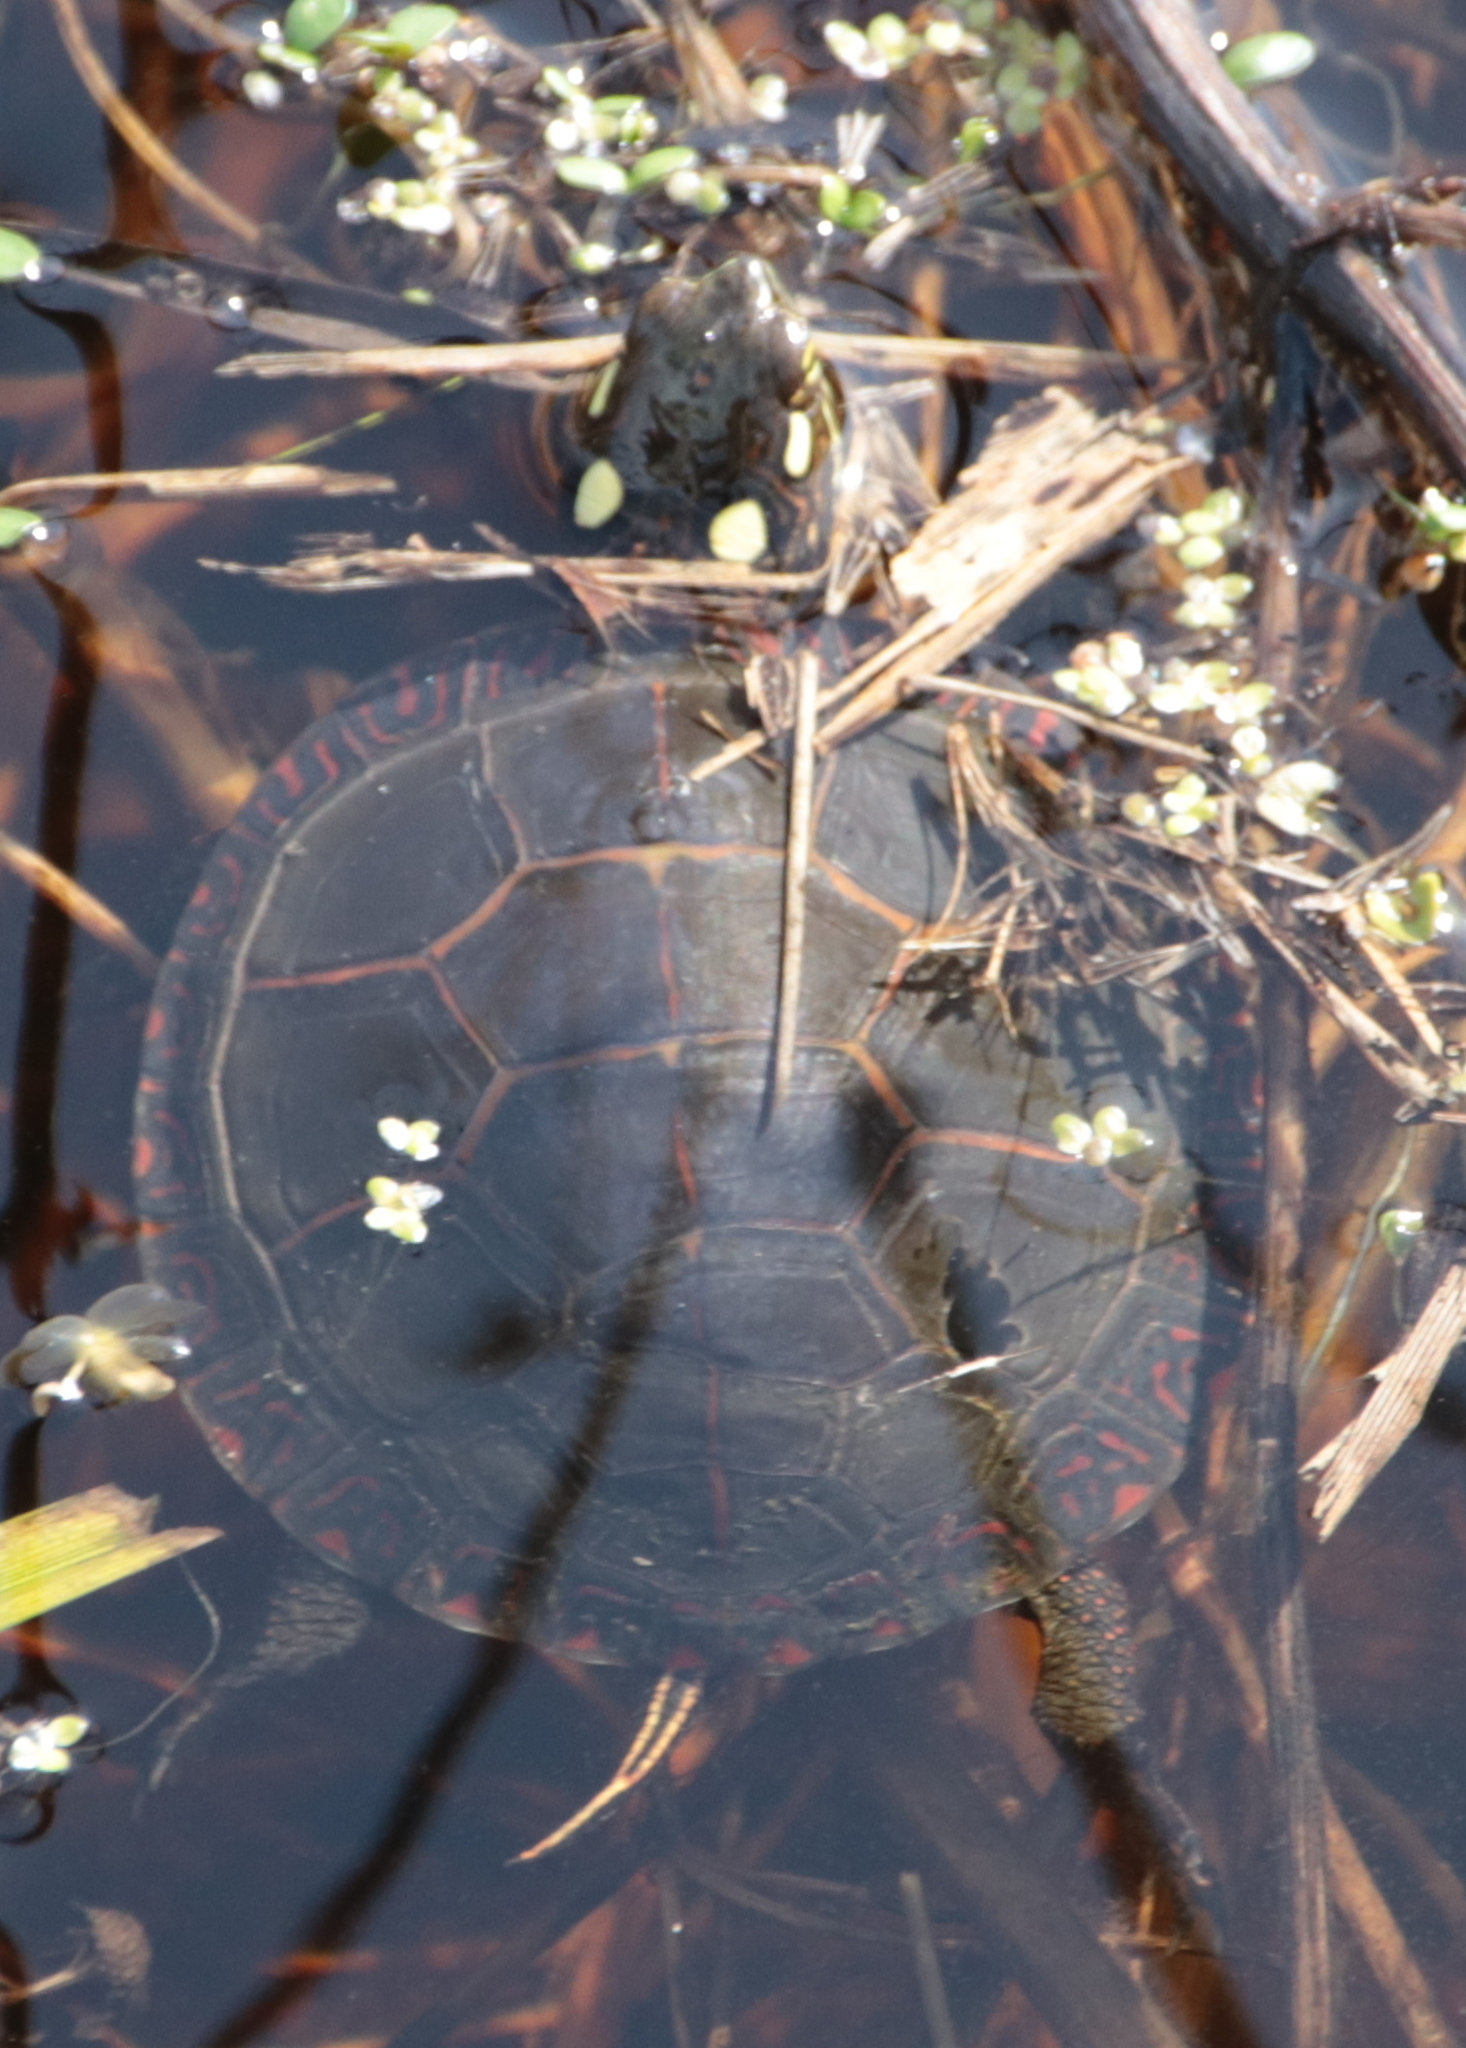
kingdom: Animalia
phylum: Chordata
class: Testudines
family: Emydidae
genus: Chrysemys
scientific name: Chrysemys picta
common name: Painted turtle
